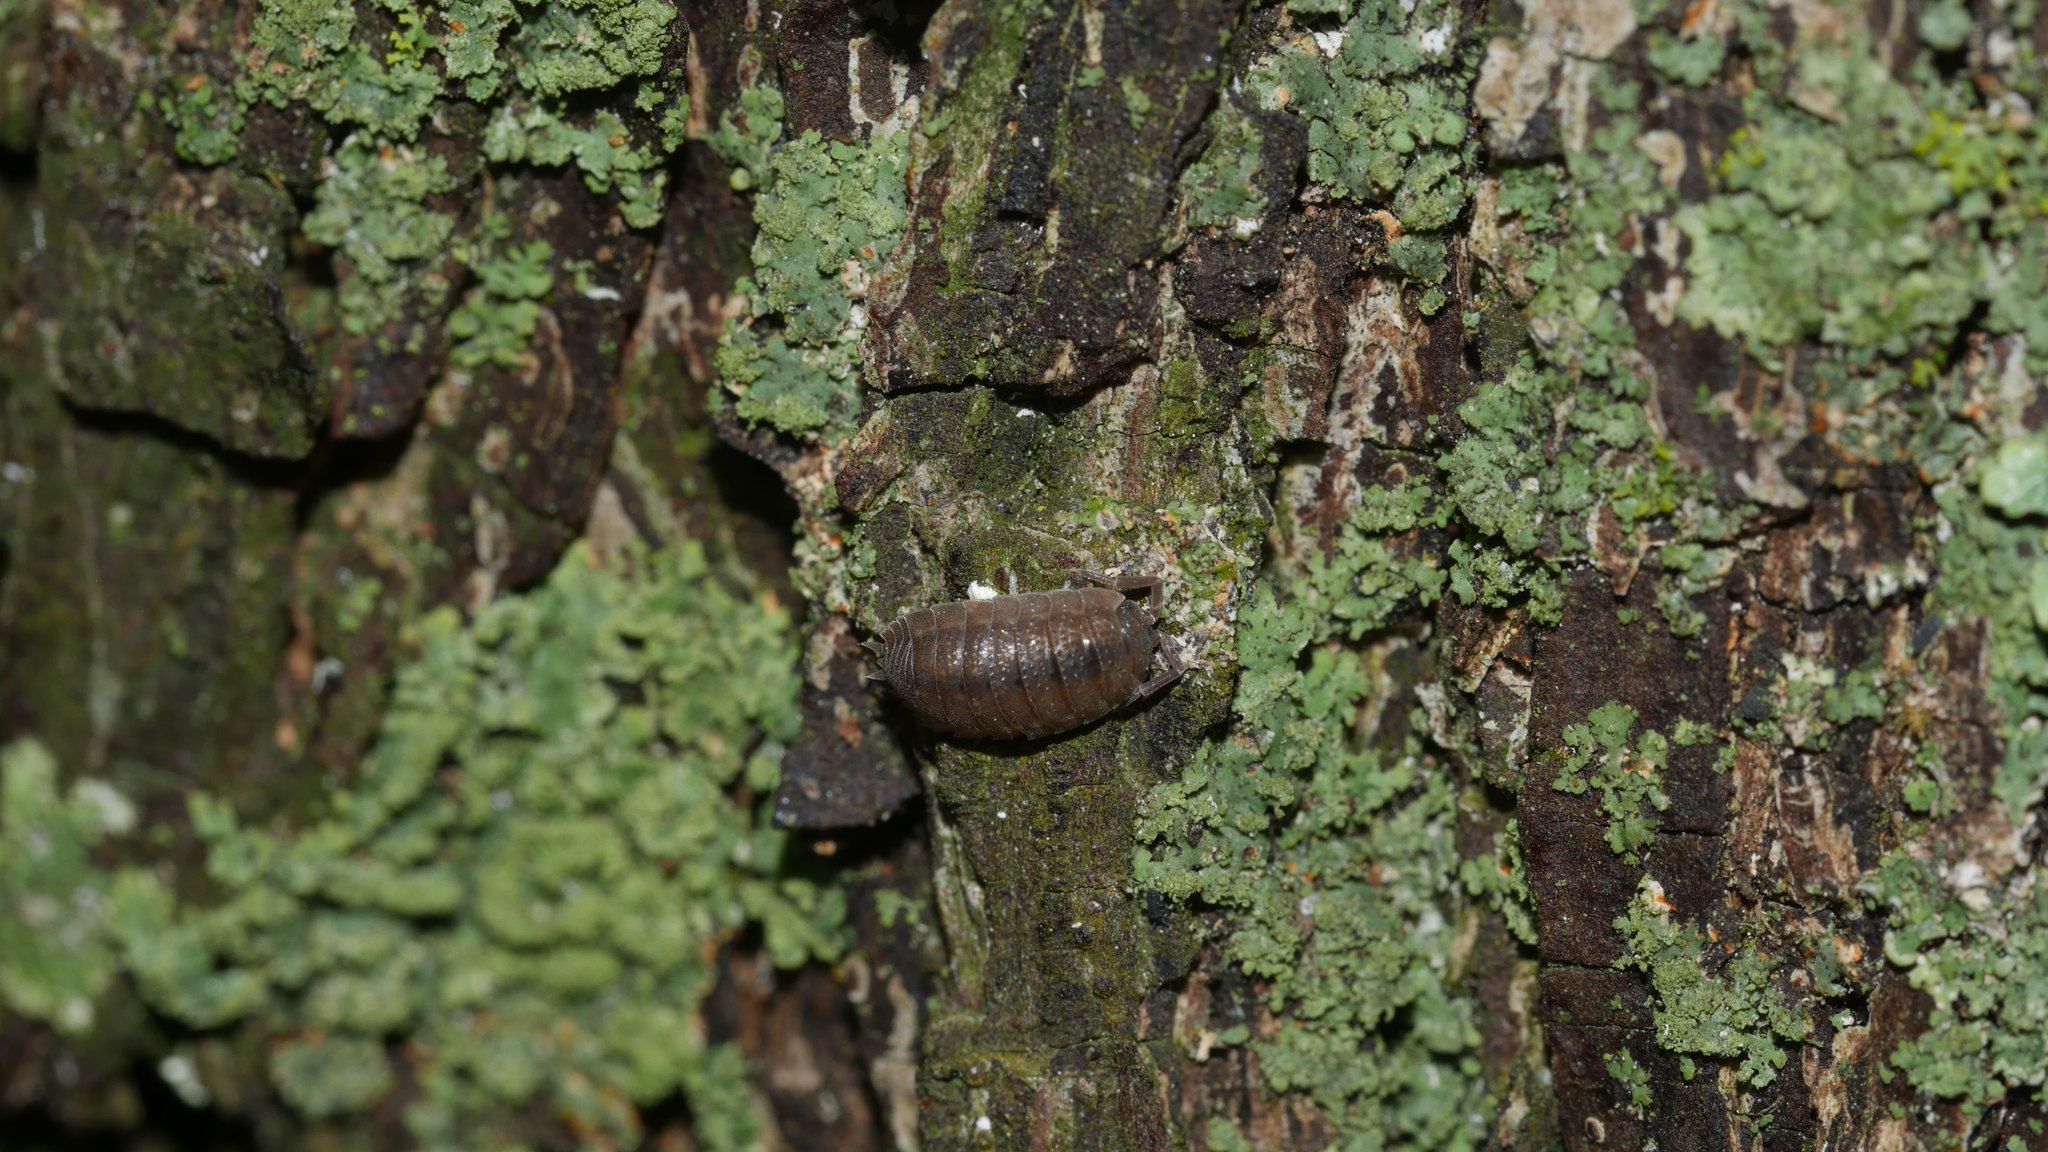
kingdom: Animalia
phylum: Arthropoda
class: Malacostraca
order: Isopoda
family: Porcellionidae
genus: Porcellio
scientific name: Porcellio scaber
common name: Common rough woodlouse
